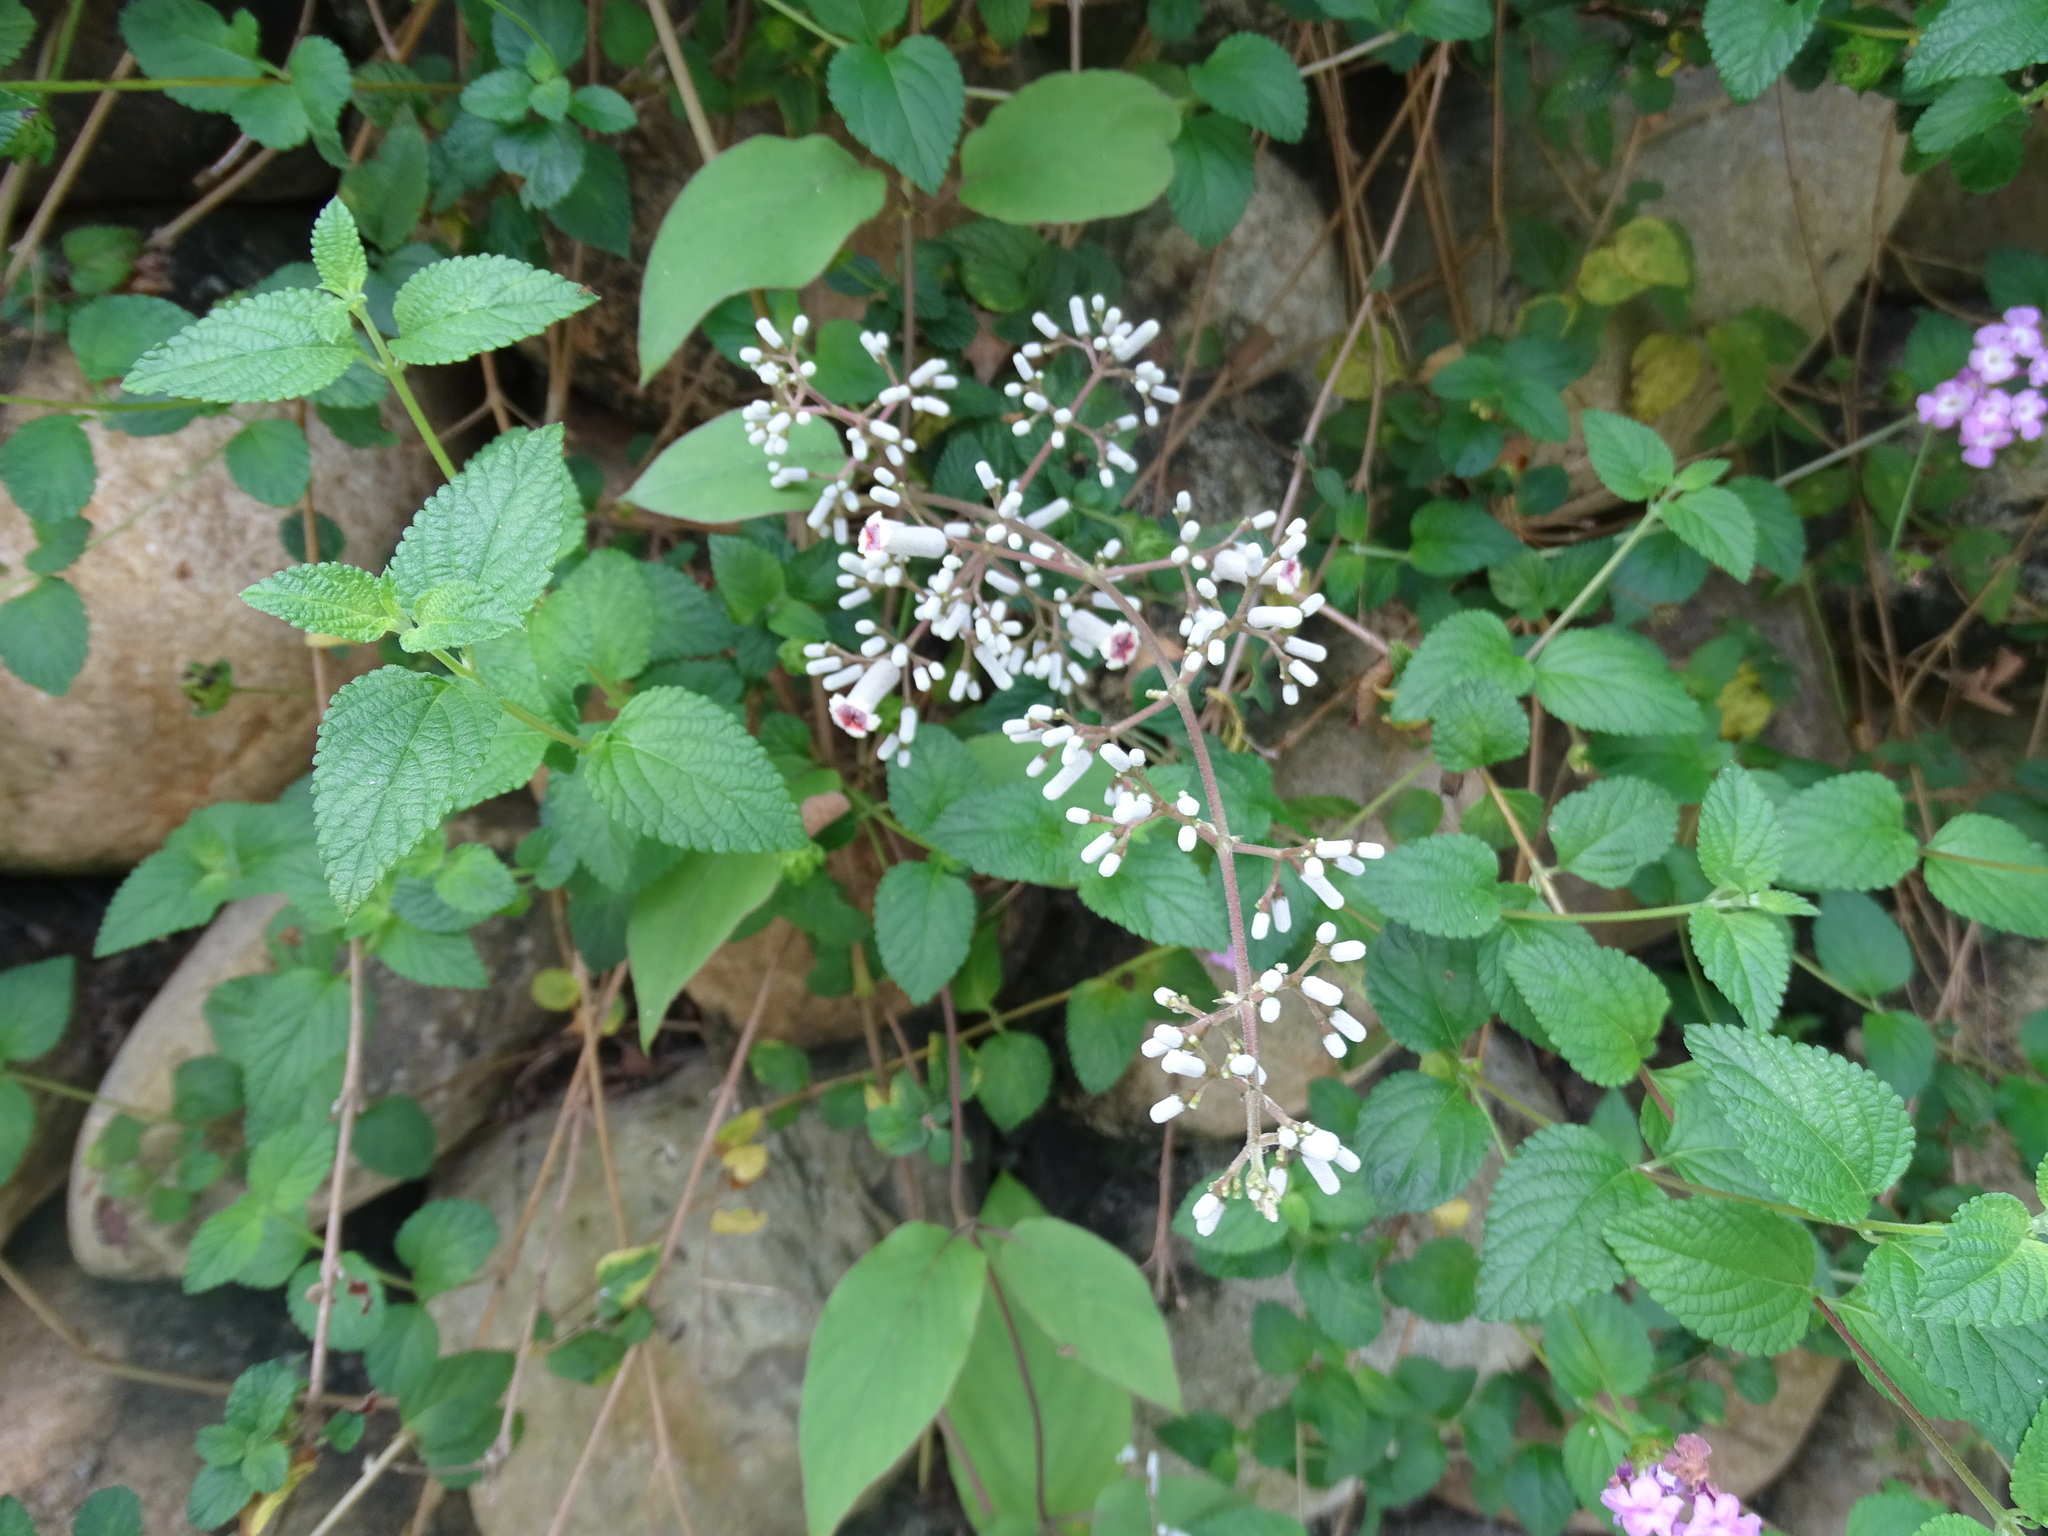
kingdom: Plantae
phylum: Tracheophyta
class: Magnoliopsida
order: Gentianales
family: Rubiaceae
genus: Paederia
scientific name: Paederia cavaleriei
